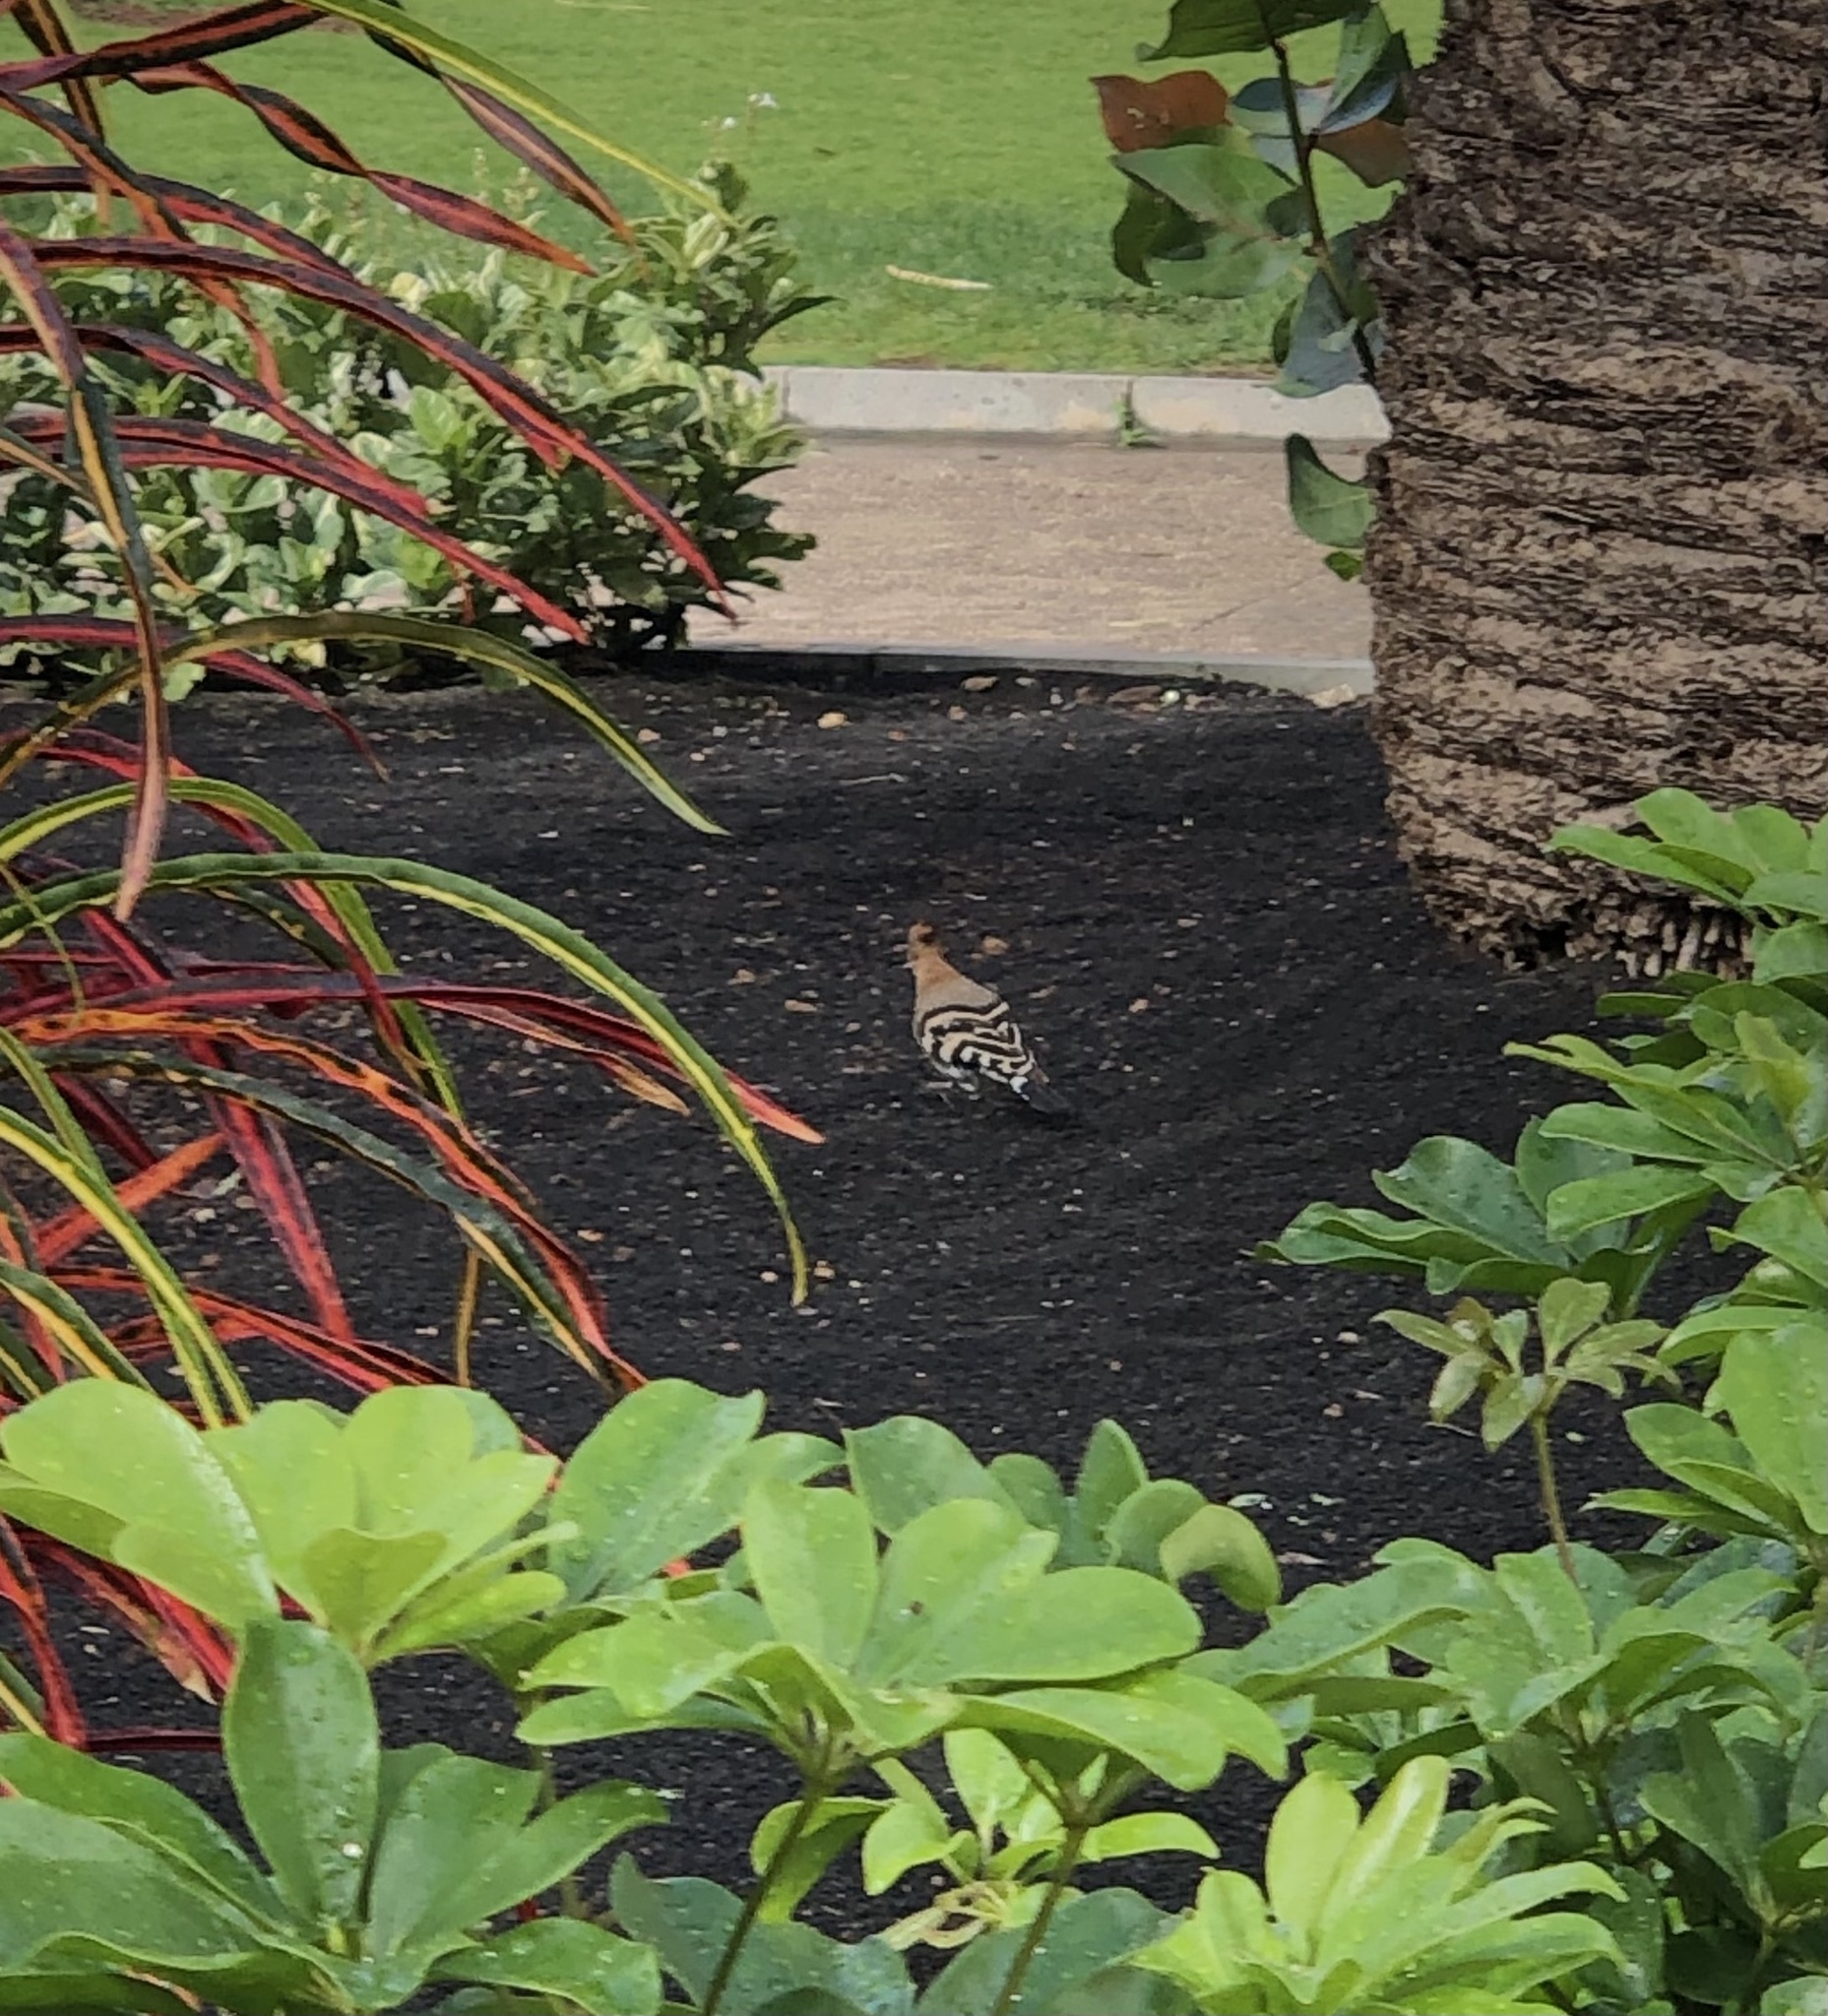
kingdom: Animalia
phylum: Chordata
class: Aves
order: Bucerotiformes
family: Upupidae
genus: Upupa
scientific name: Upupa epops
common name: Eurasian hoopoe
